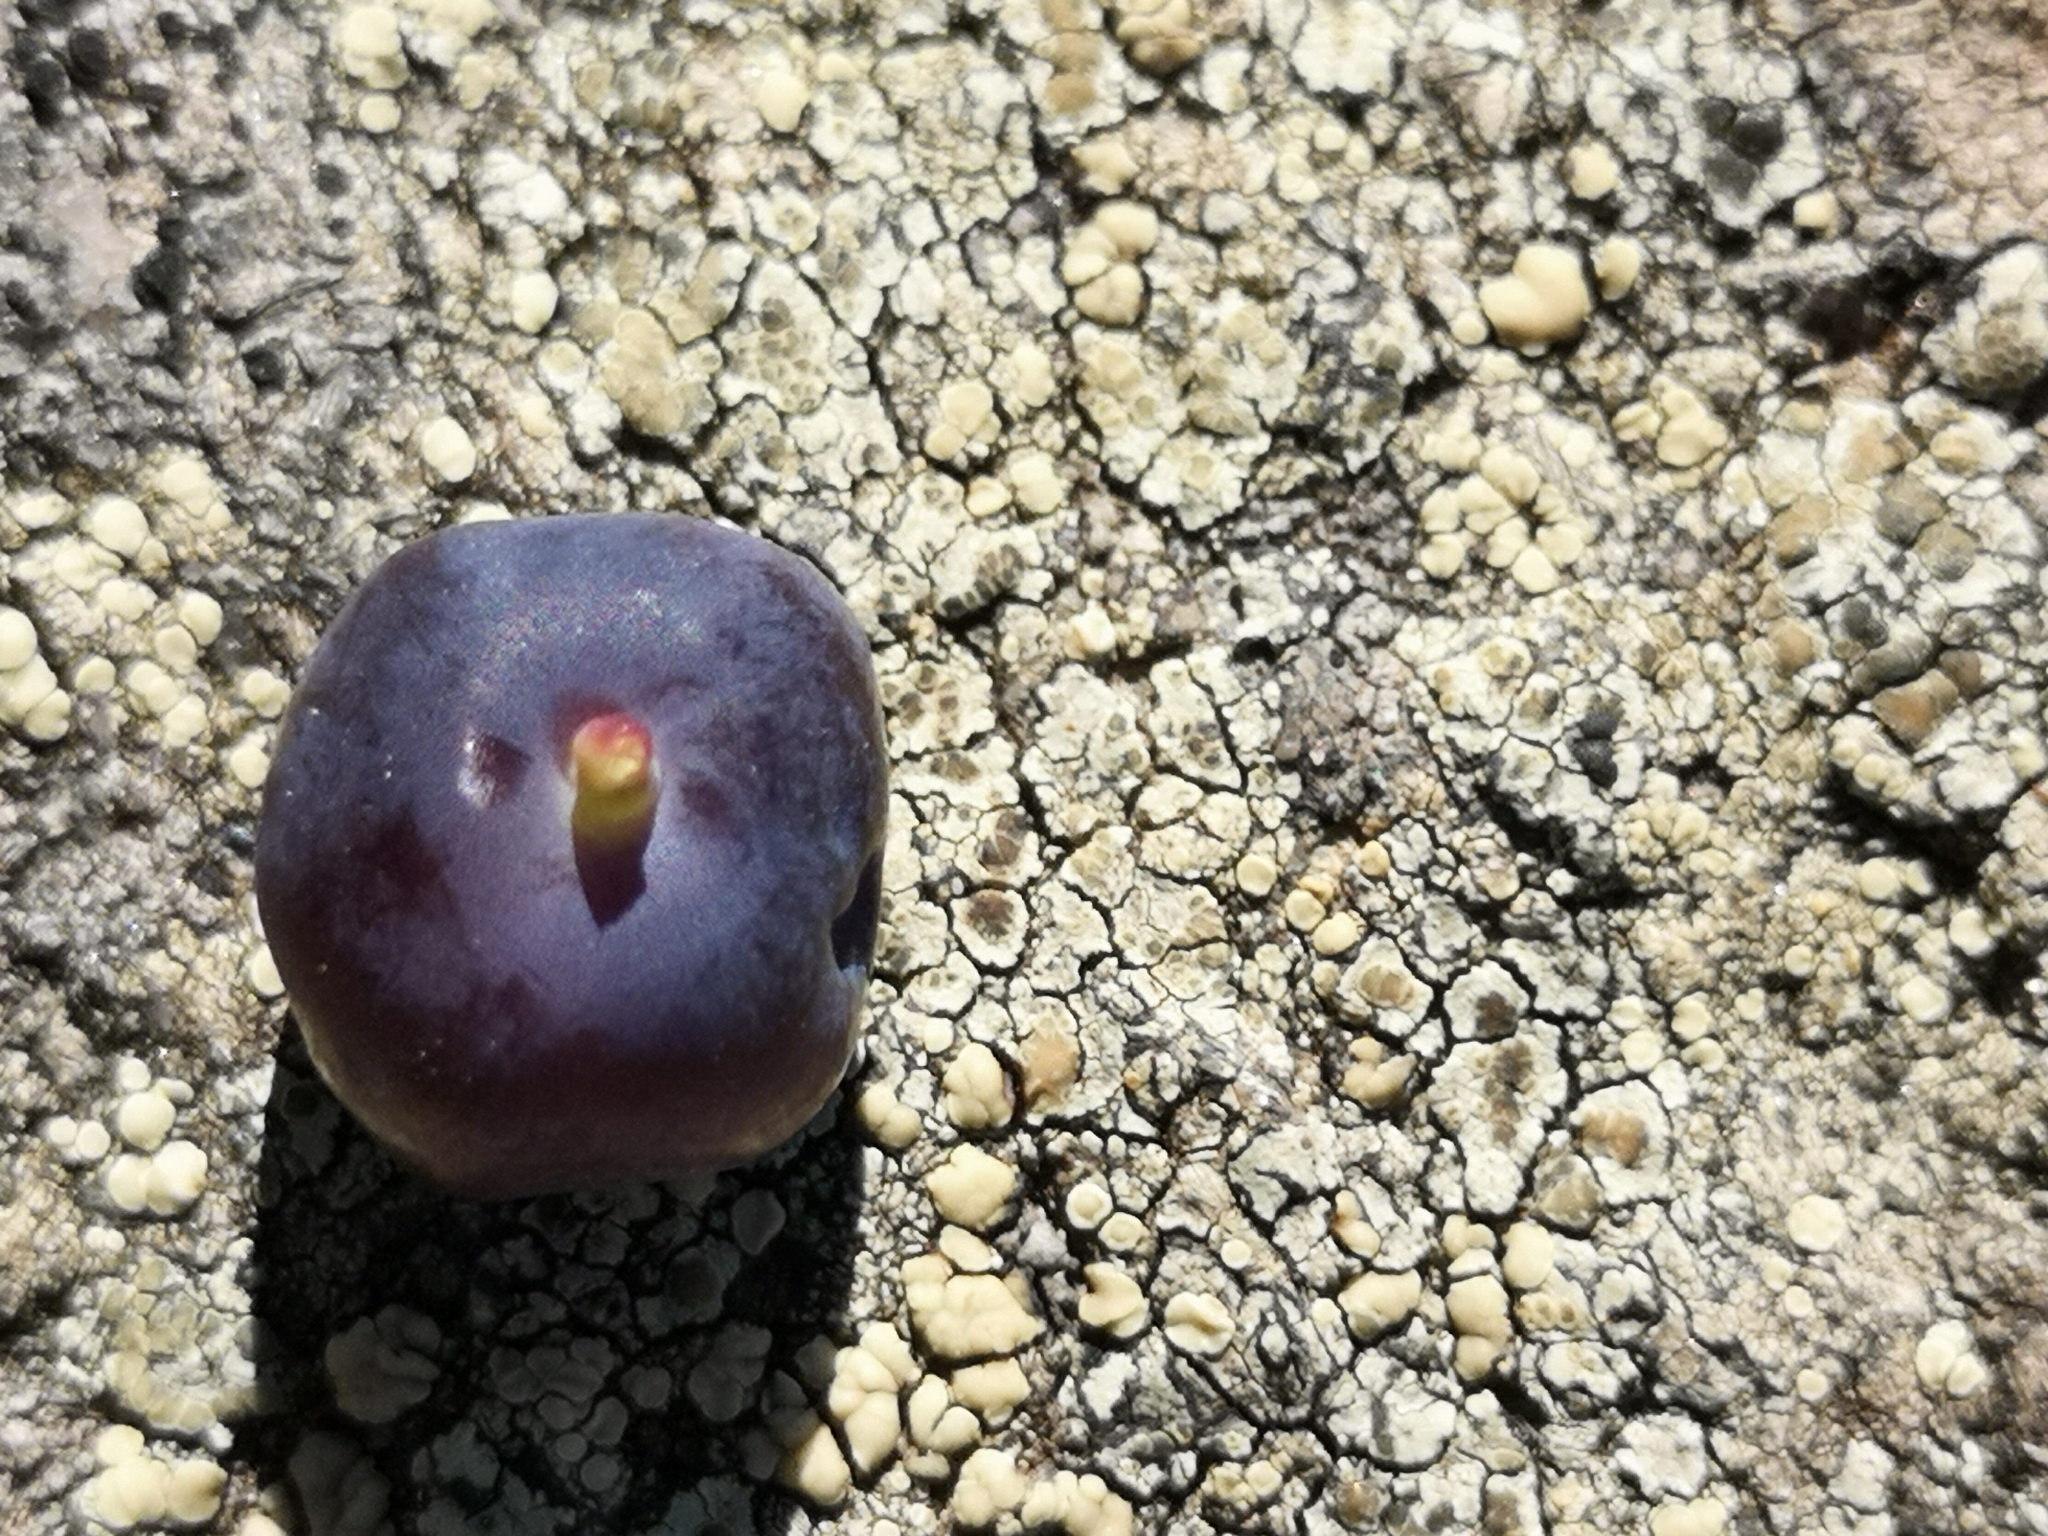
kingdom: Plantae
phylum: Tracheophyta
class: Magnoliopsida
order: Ericales
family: Ericaceae
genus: Vaccinium
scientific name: Vaccinium uliginosum
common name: Bog bilberry
